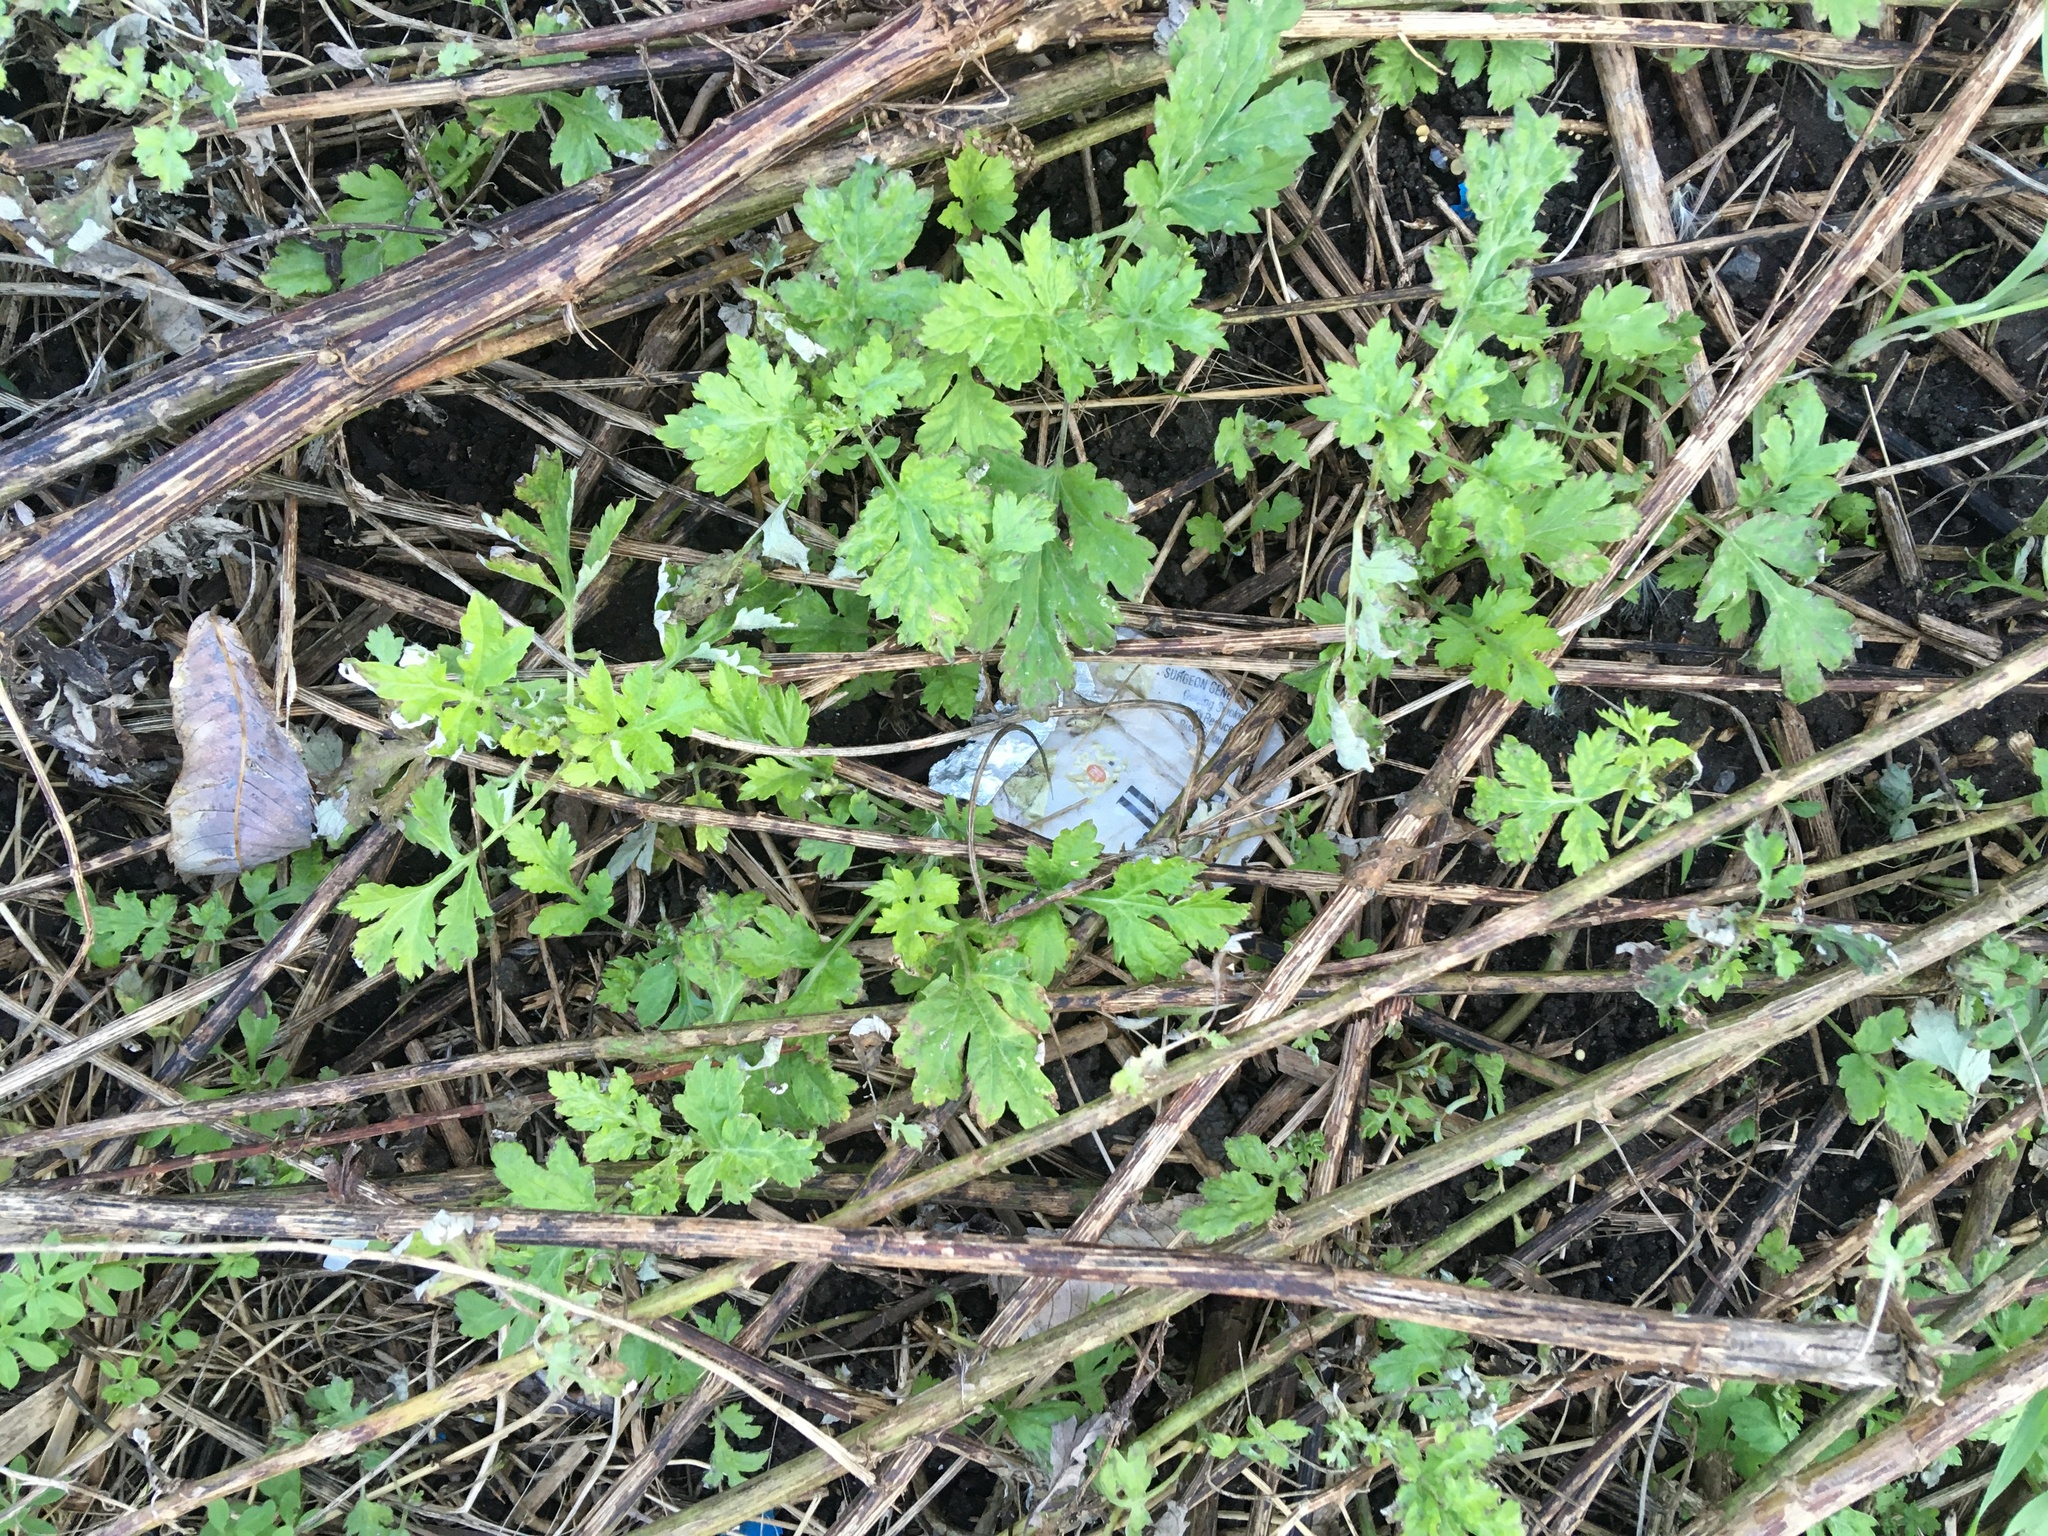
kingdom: Plantae
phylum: Tracheophyta
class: Magnoliopsida
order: Asterales
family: Asteraceae
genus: Artemisia
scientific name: Artemisia vulgaris
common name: Mugwort
